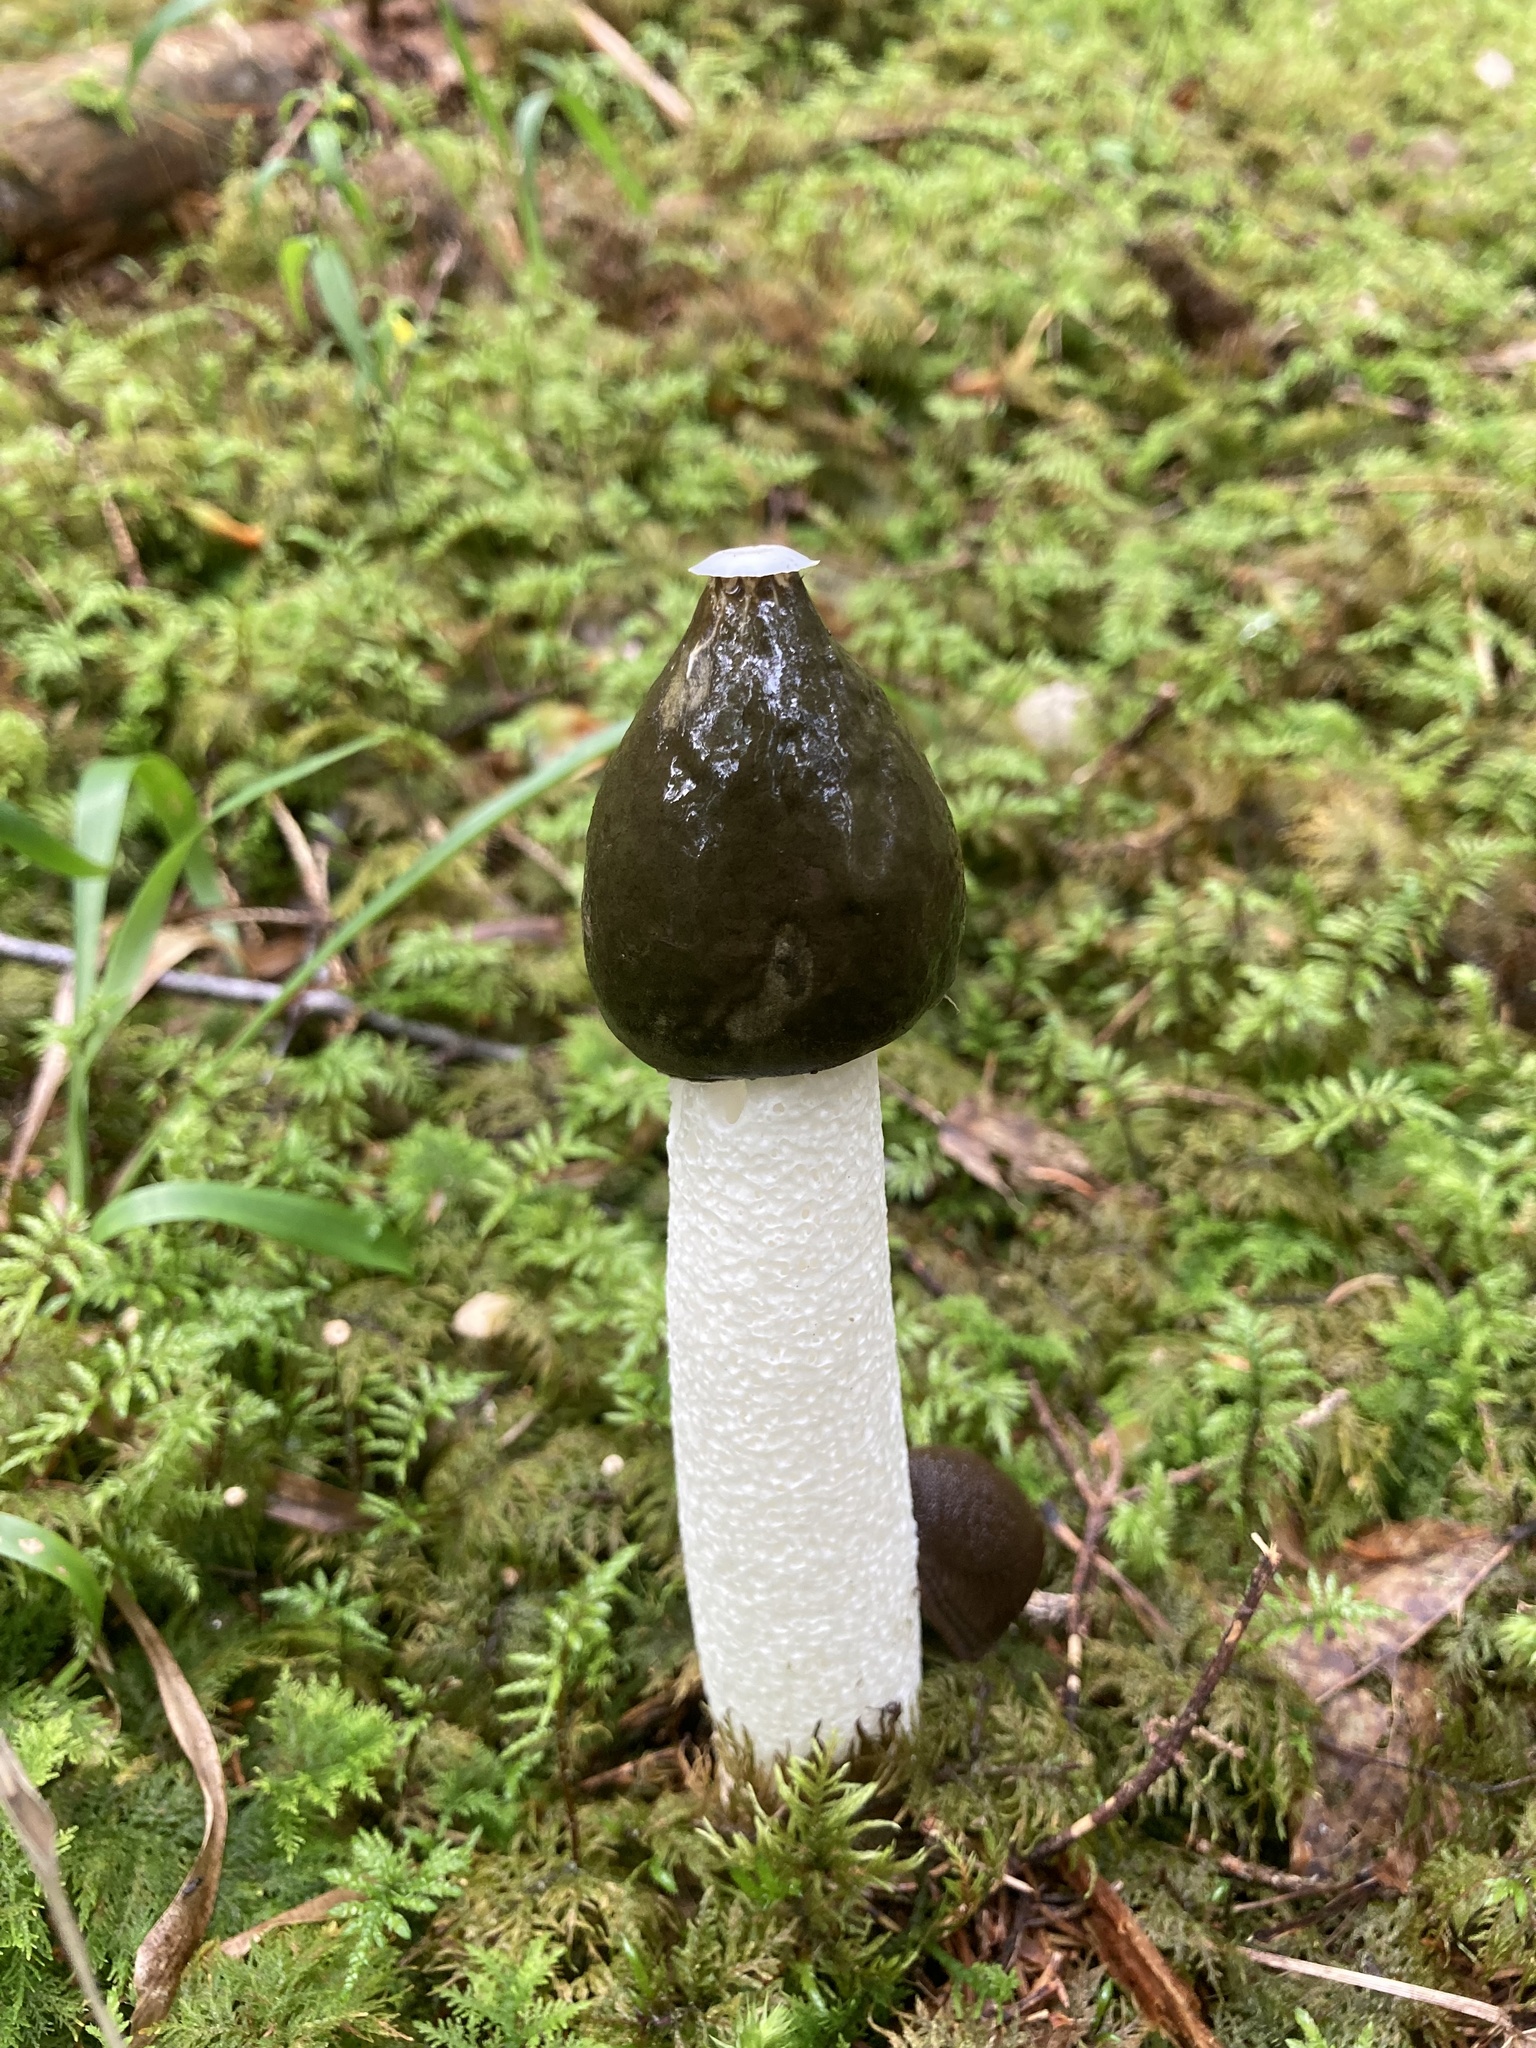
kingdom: Fungi
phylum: Basidiomycota
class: Agaricomycetes
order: Phallales
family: Phallaceae
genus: Phallus
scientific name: Phallus impudicus
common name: Common stinkhorn
